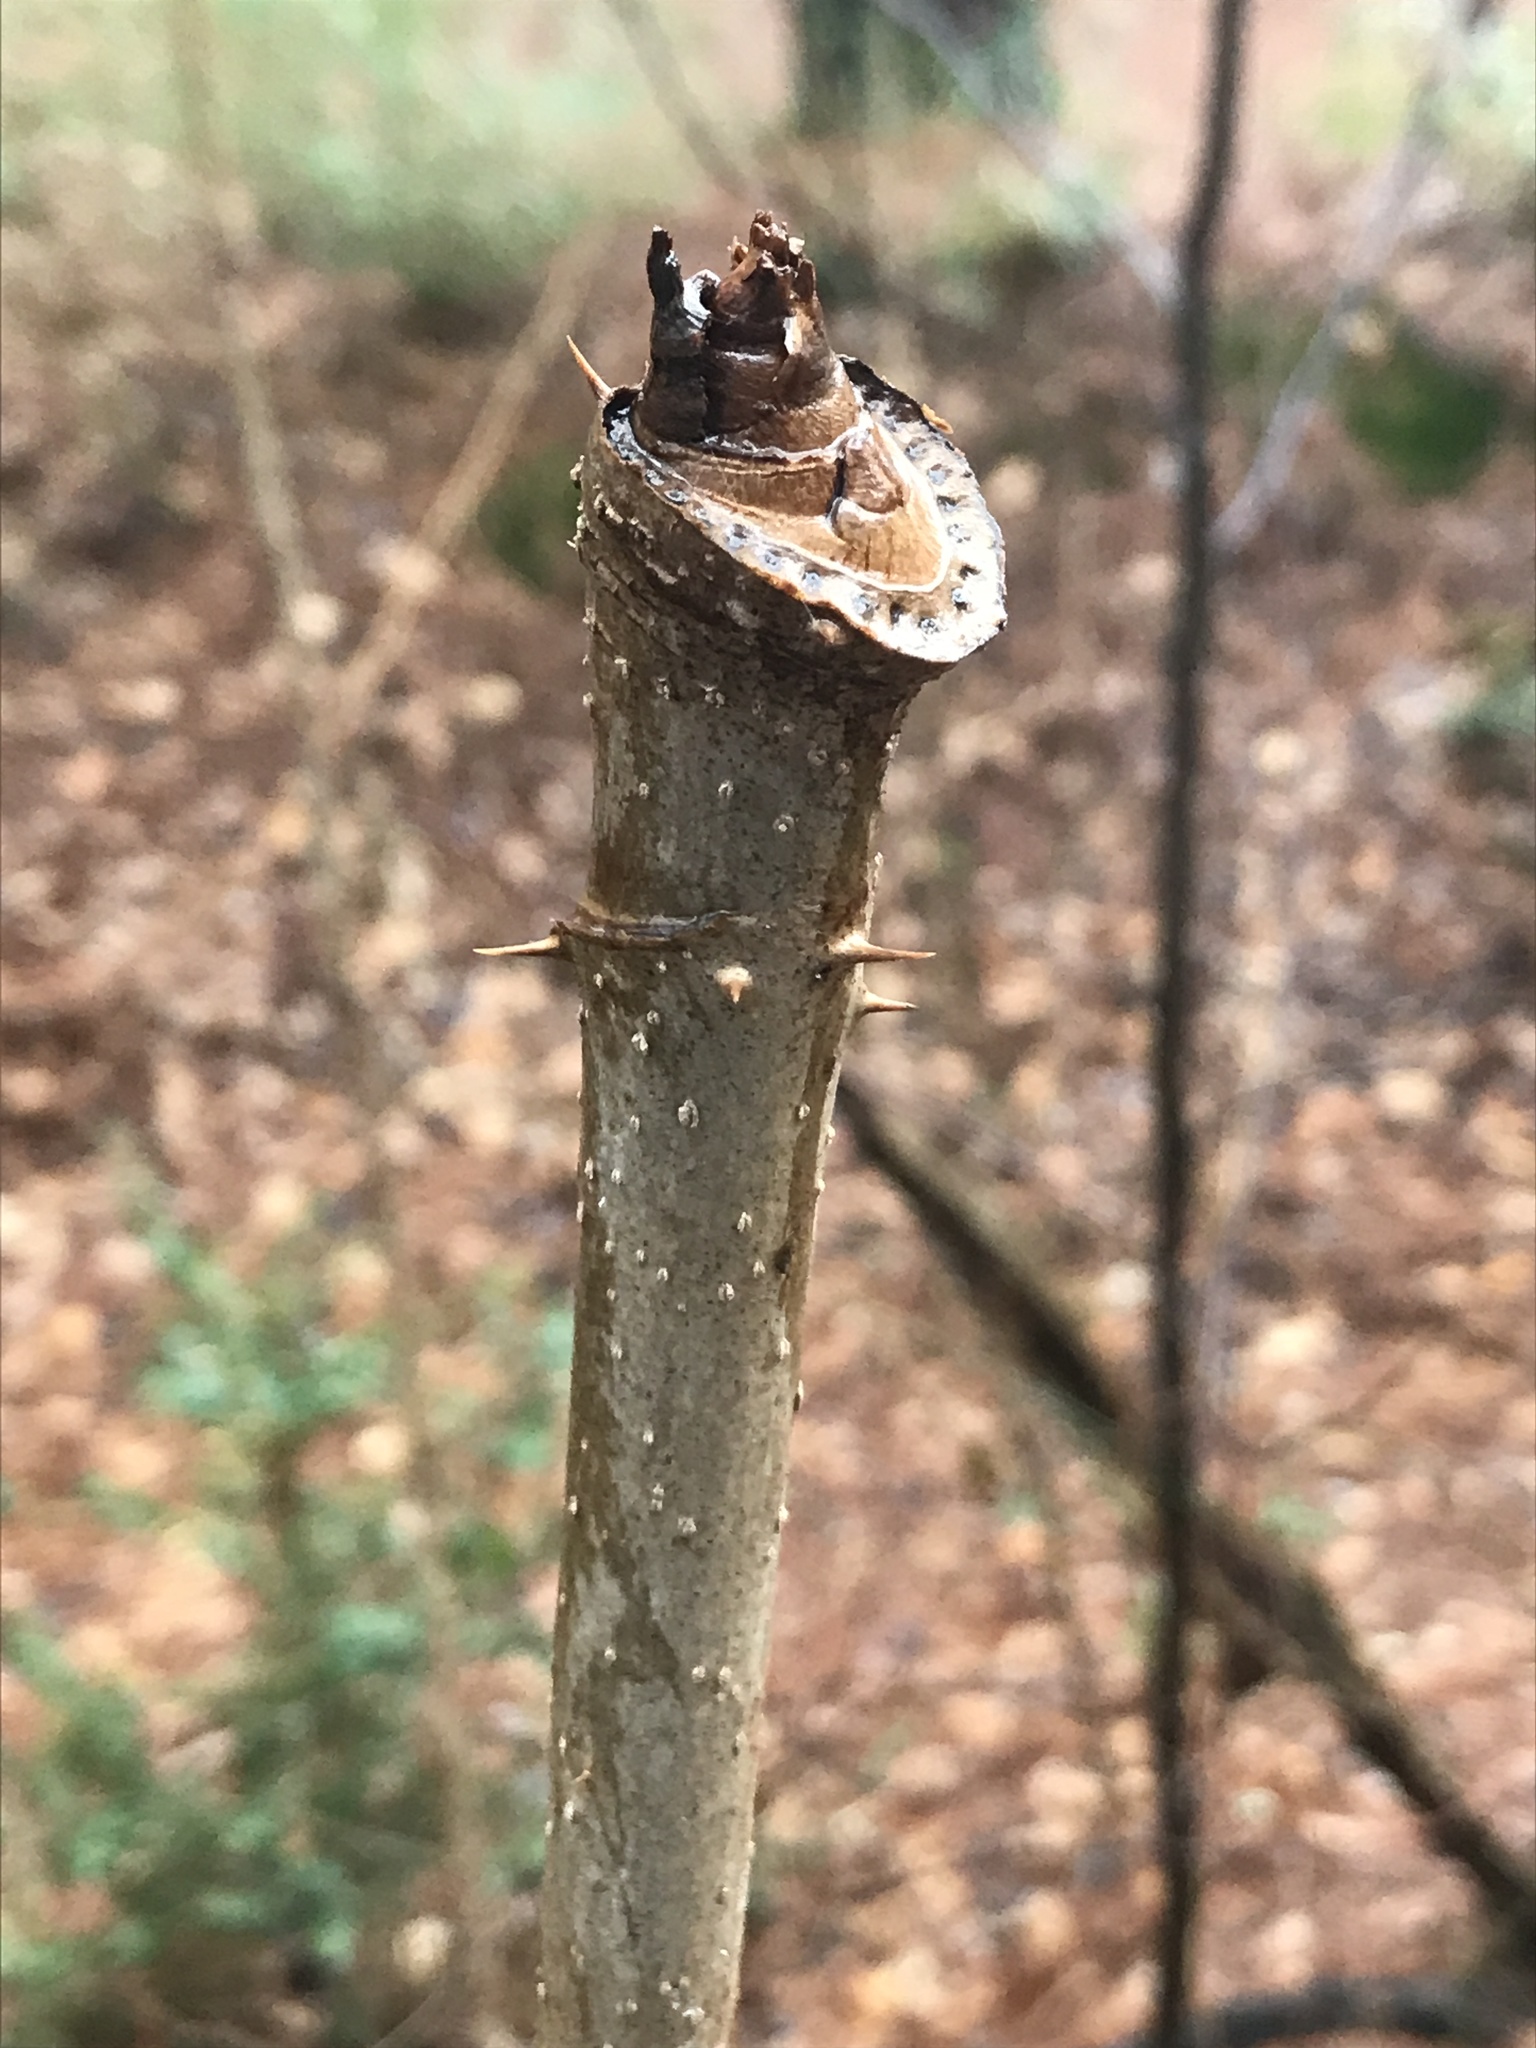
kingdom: Plantae
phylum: Tracheophyta
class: Magnoliopsida
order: Apiales
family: Araliaceae
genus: Aralia
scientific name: Aralia spinosa
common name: Hercules'-club
